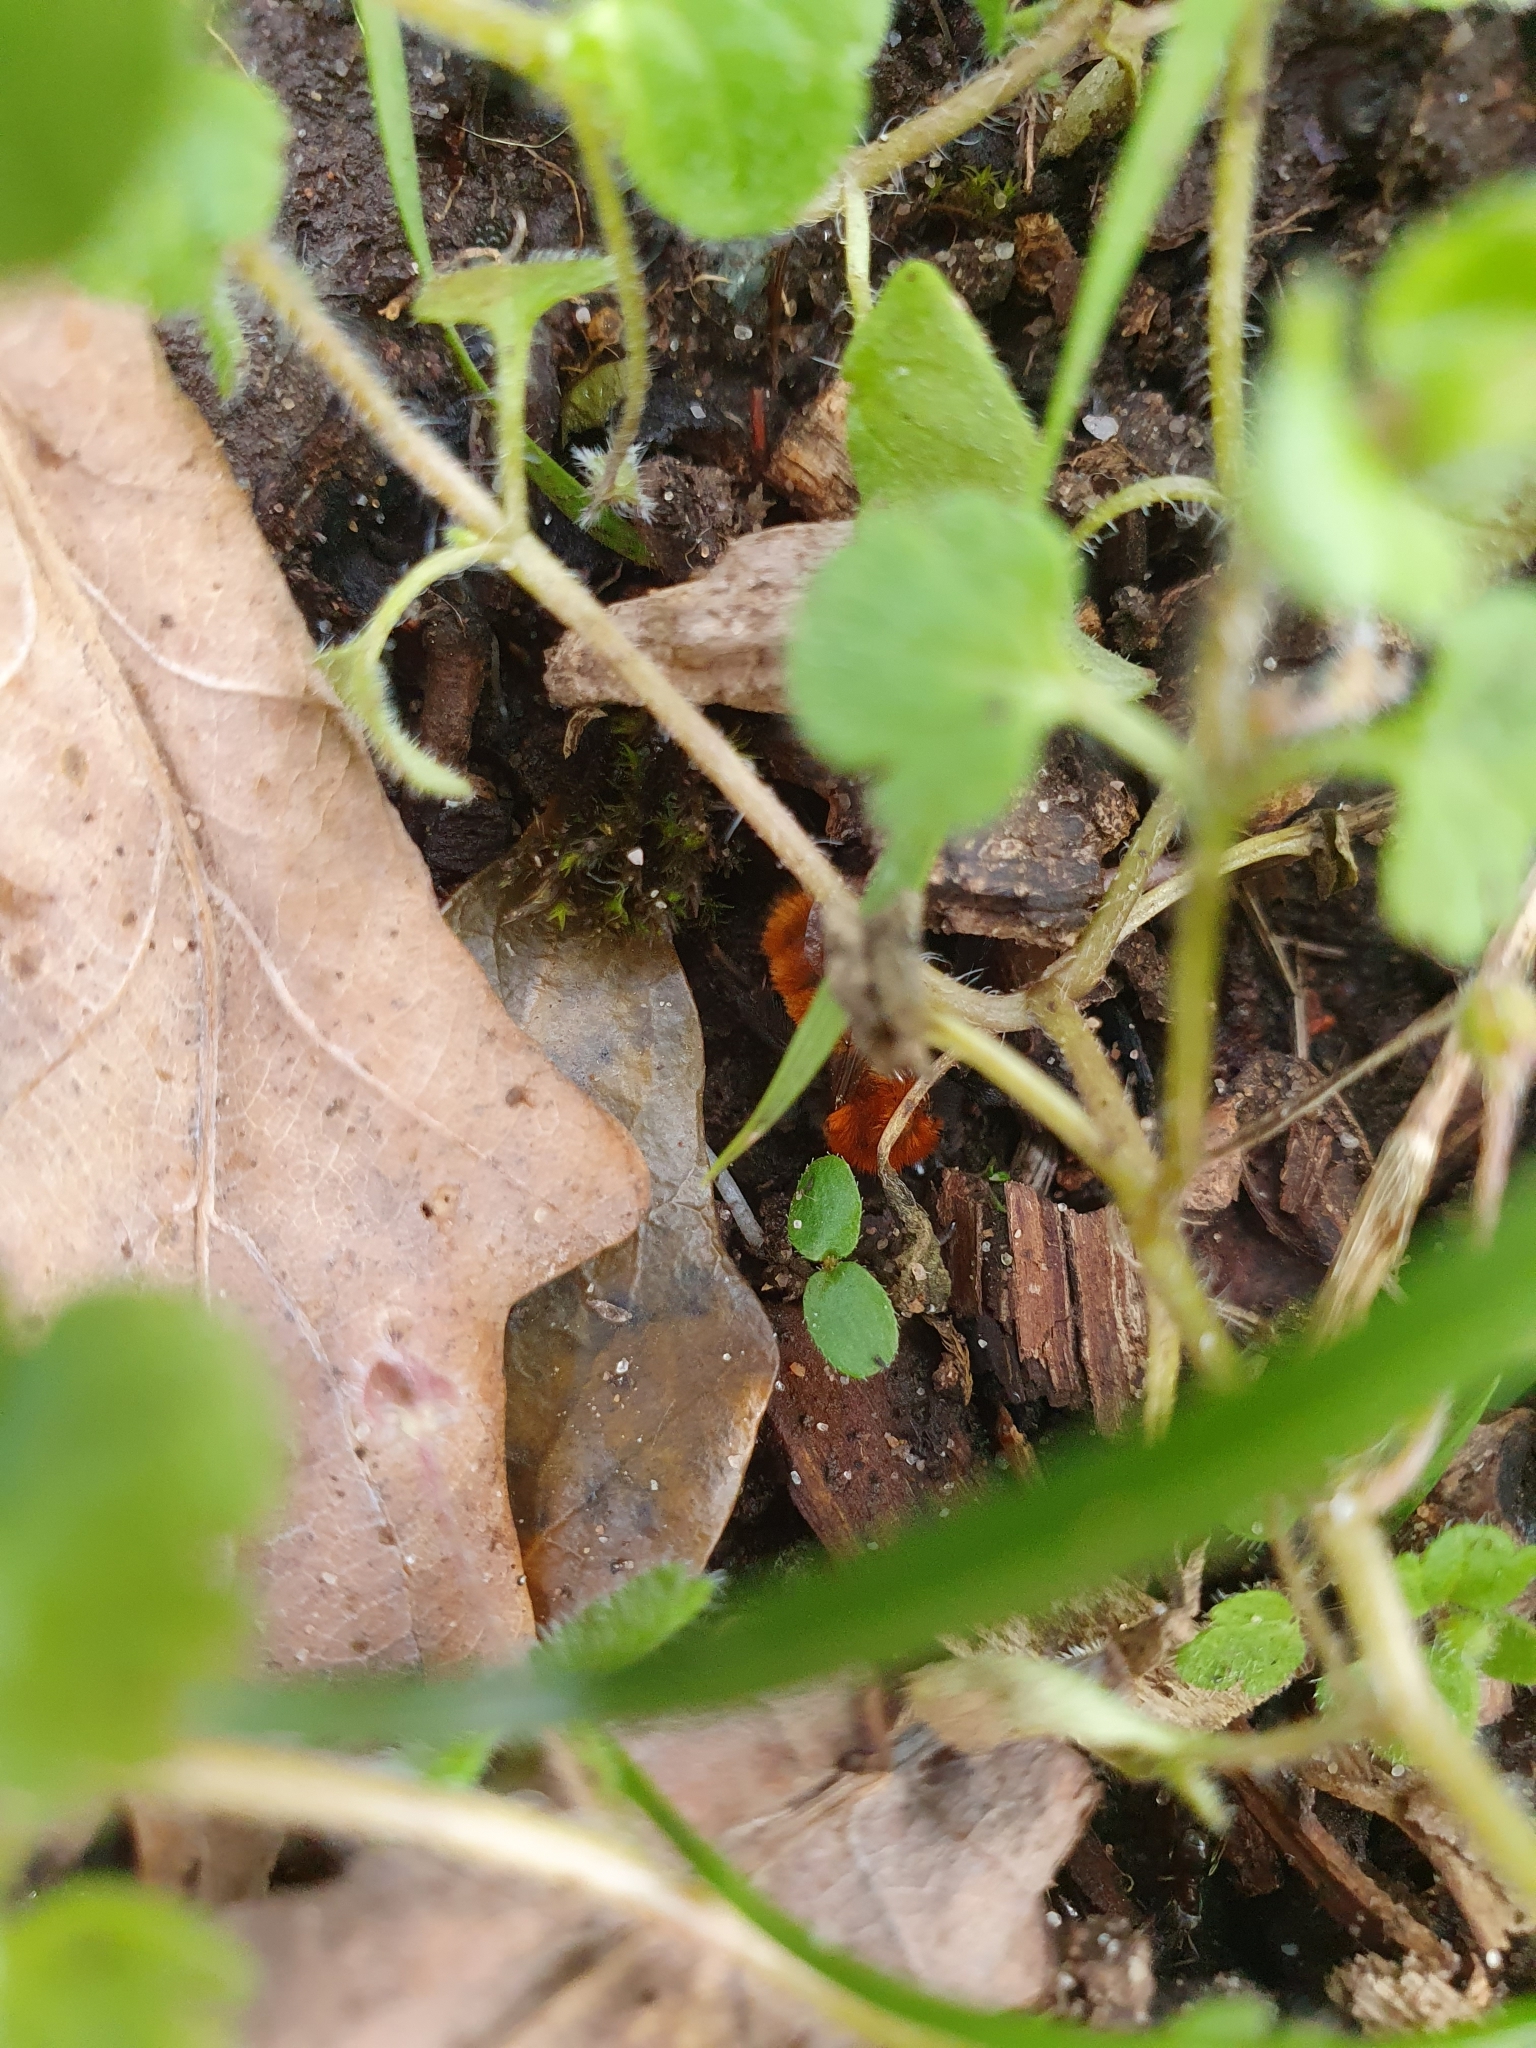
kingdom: Animalia
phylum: Arthropoda
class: Insecta
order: Hymenoptera
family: Andrenidae
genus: Andrena
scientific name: Andrena fulva
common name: Tawny mining bee
